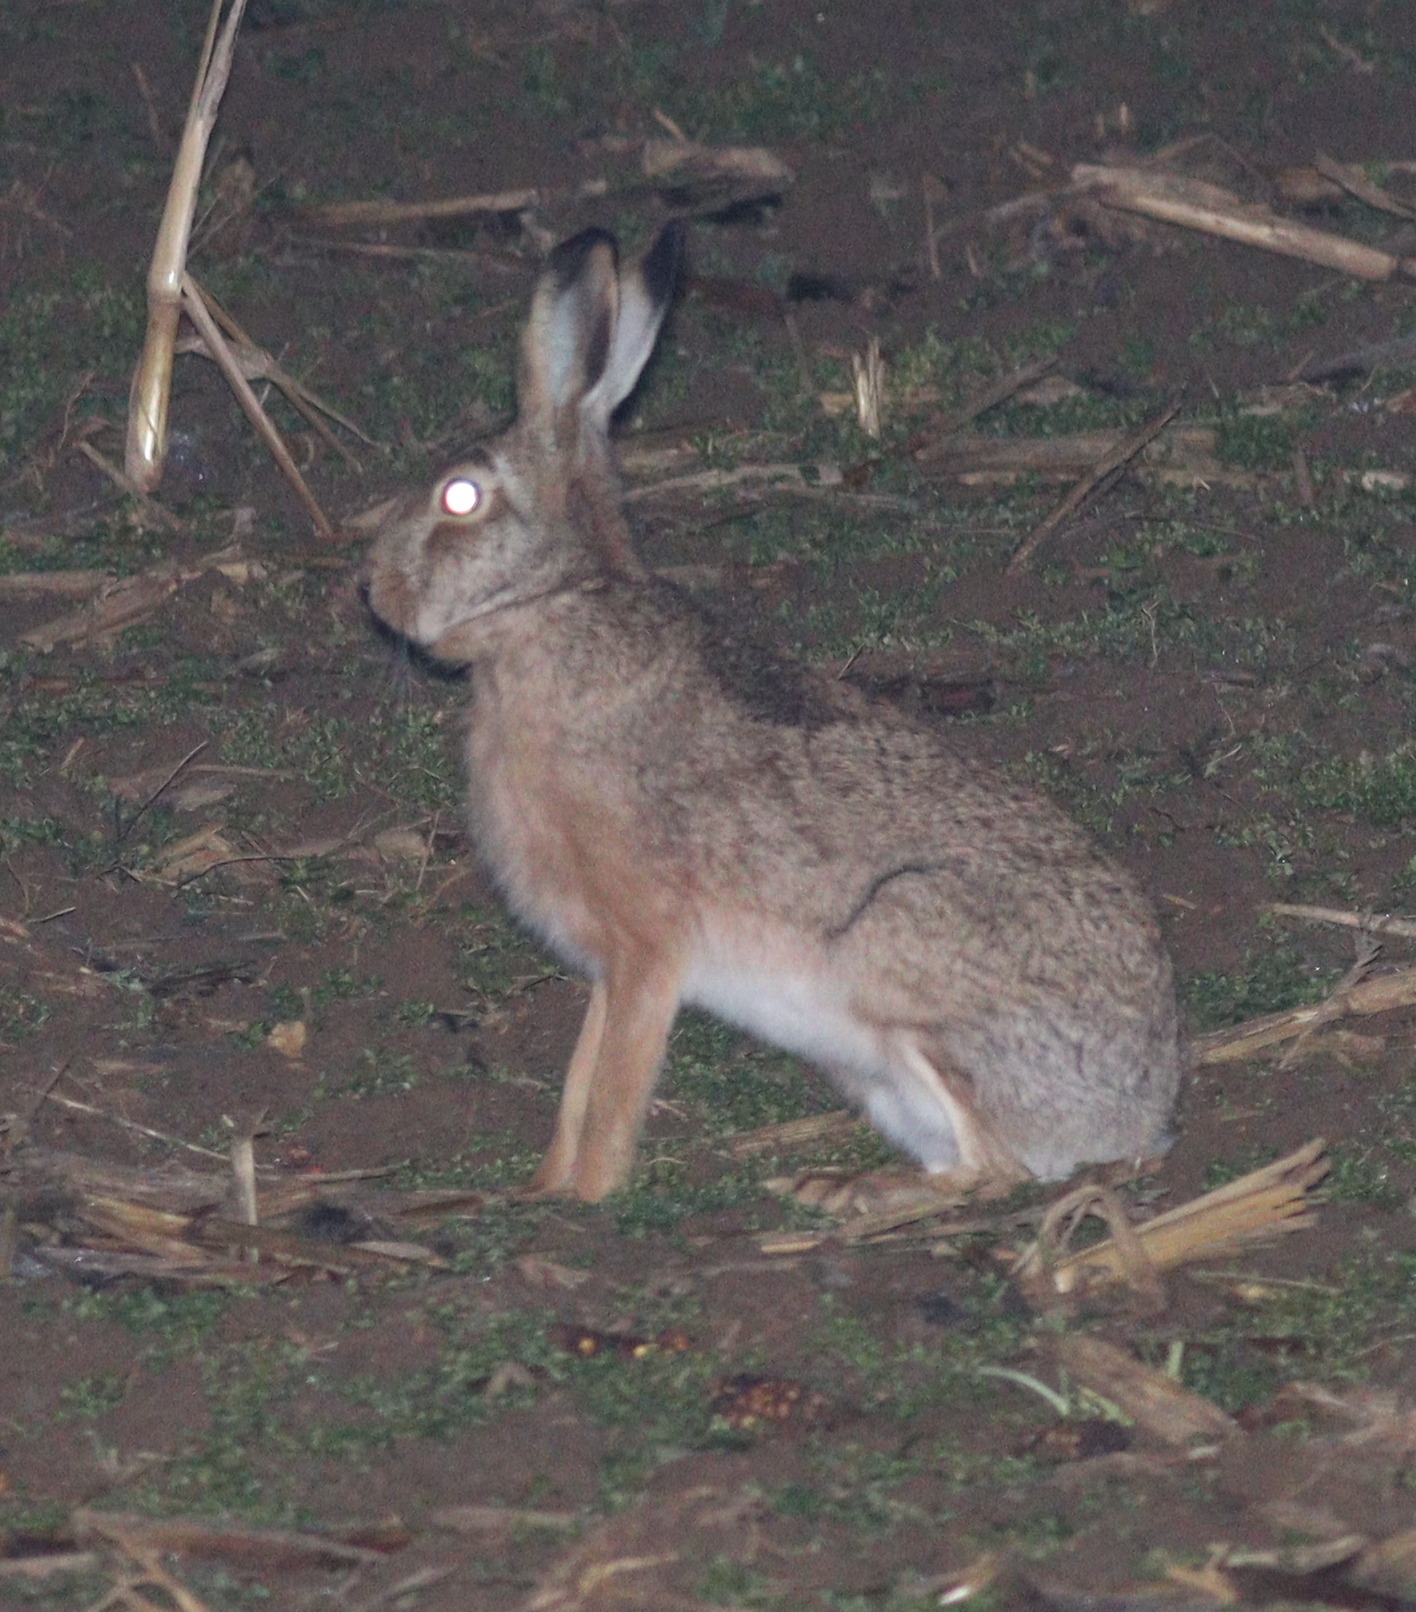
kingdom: Animalia
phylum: Chordata
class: Mammalia
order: Lagomorpha
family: Leporidae
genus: Lepus
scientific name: Lepus europaeus
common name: European hare
